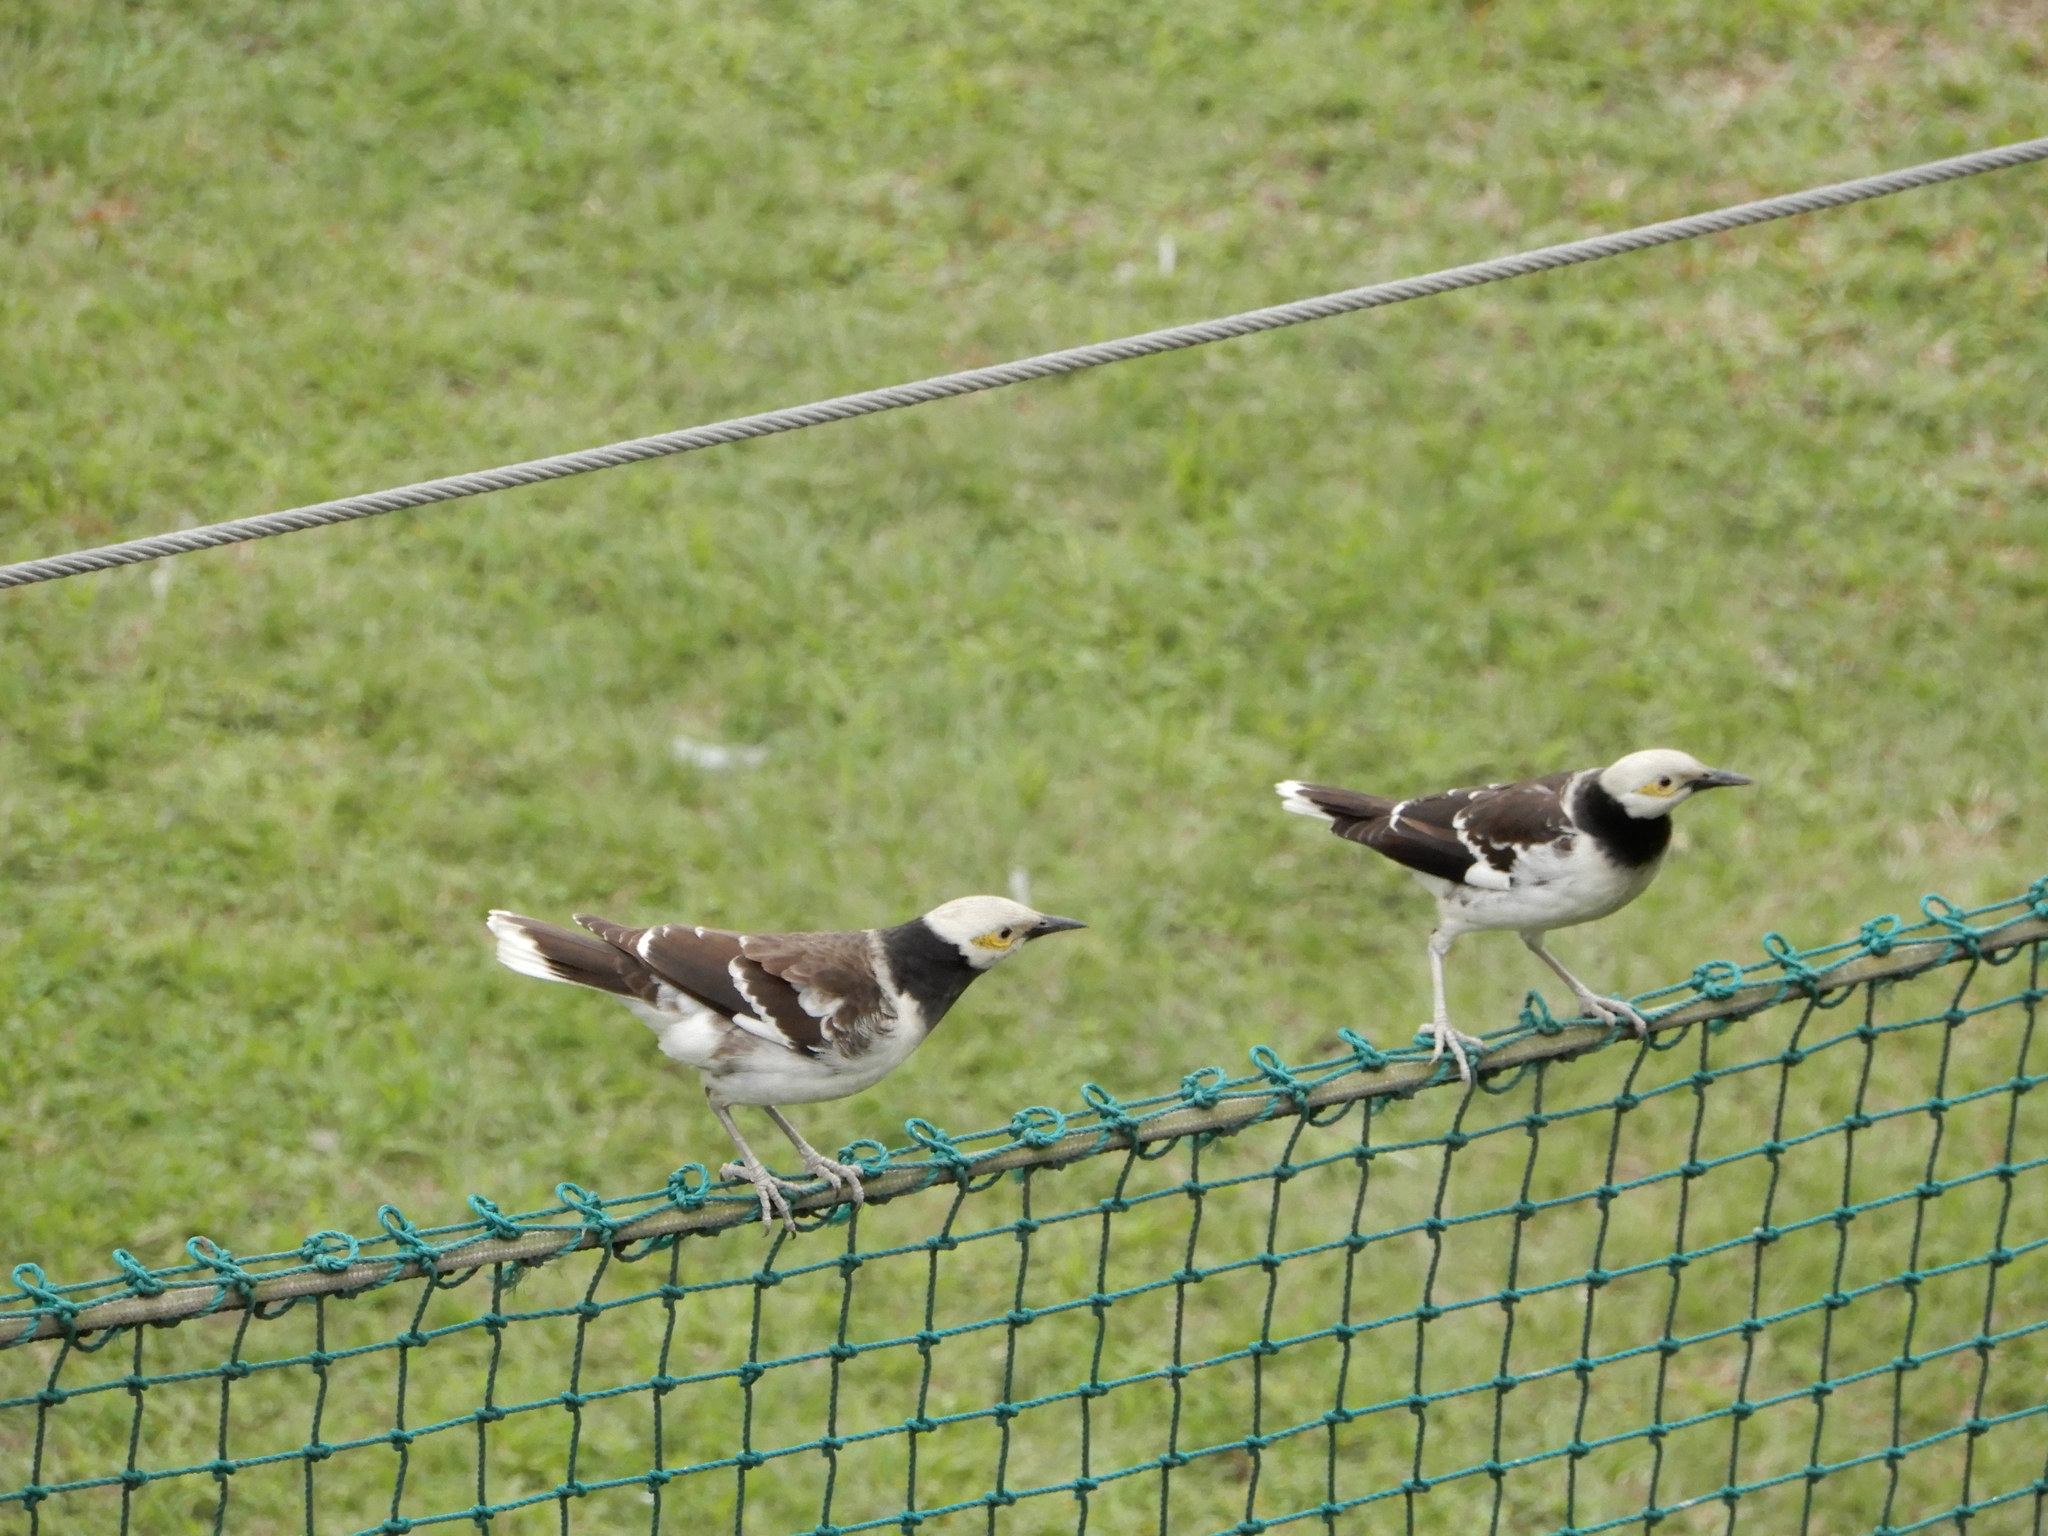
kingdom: Animalia
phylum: Chordata
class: Aves
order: Passeriformes
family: Sturnidae
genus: Gracupica
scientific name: Gracupica nigricollis
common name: Black-collared starling
